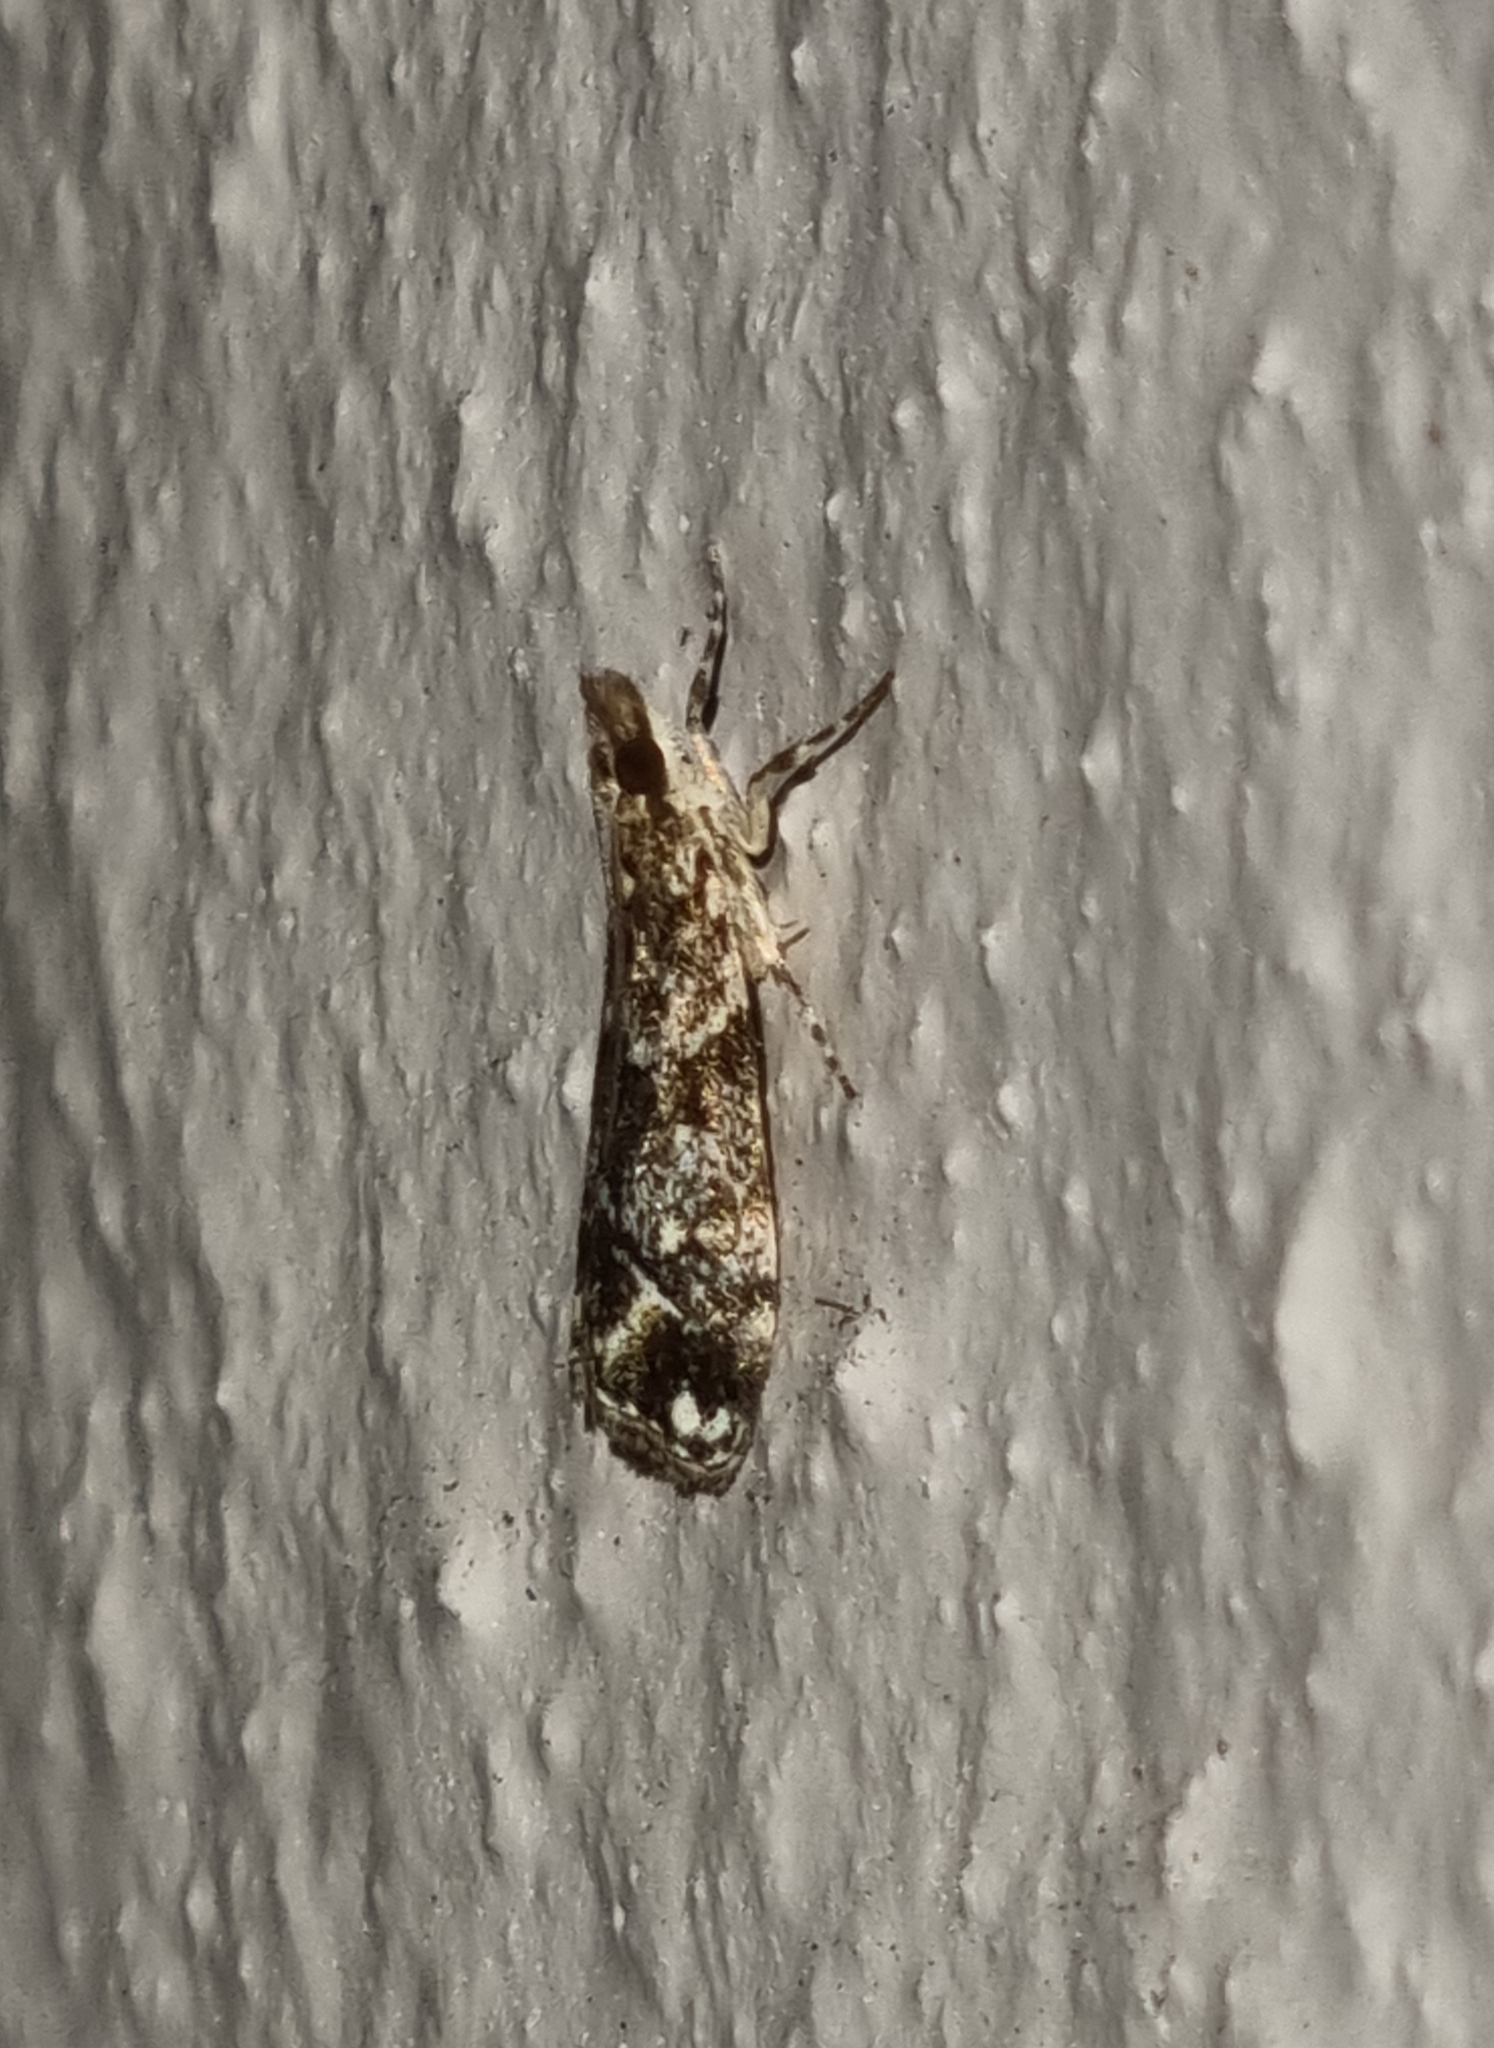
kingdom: Animalia
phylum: Arthropoda
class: Insecta
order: Lepidoptera
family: Crambidae
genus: Eudonia
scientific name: Eudonia minualis
